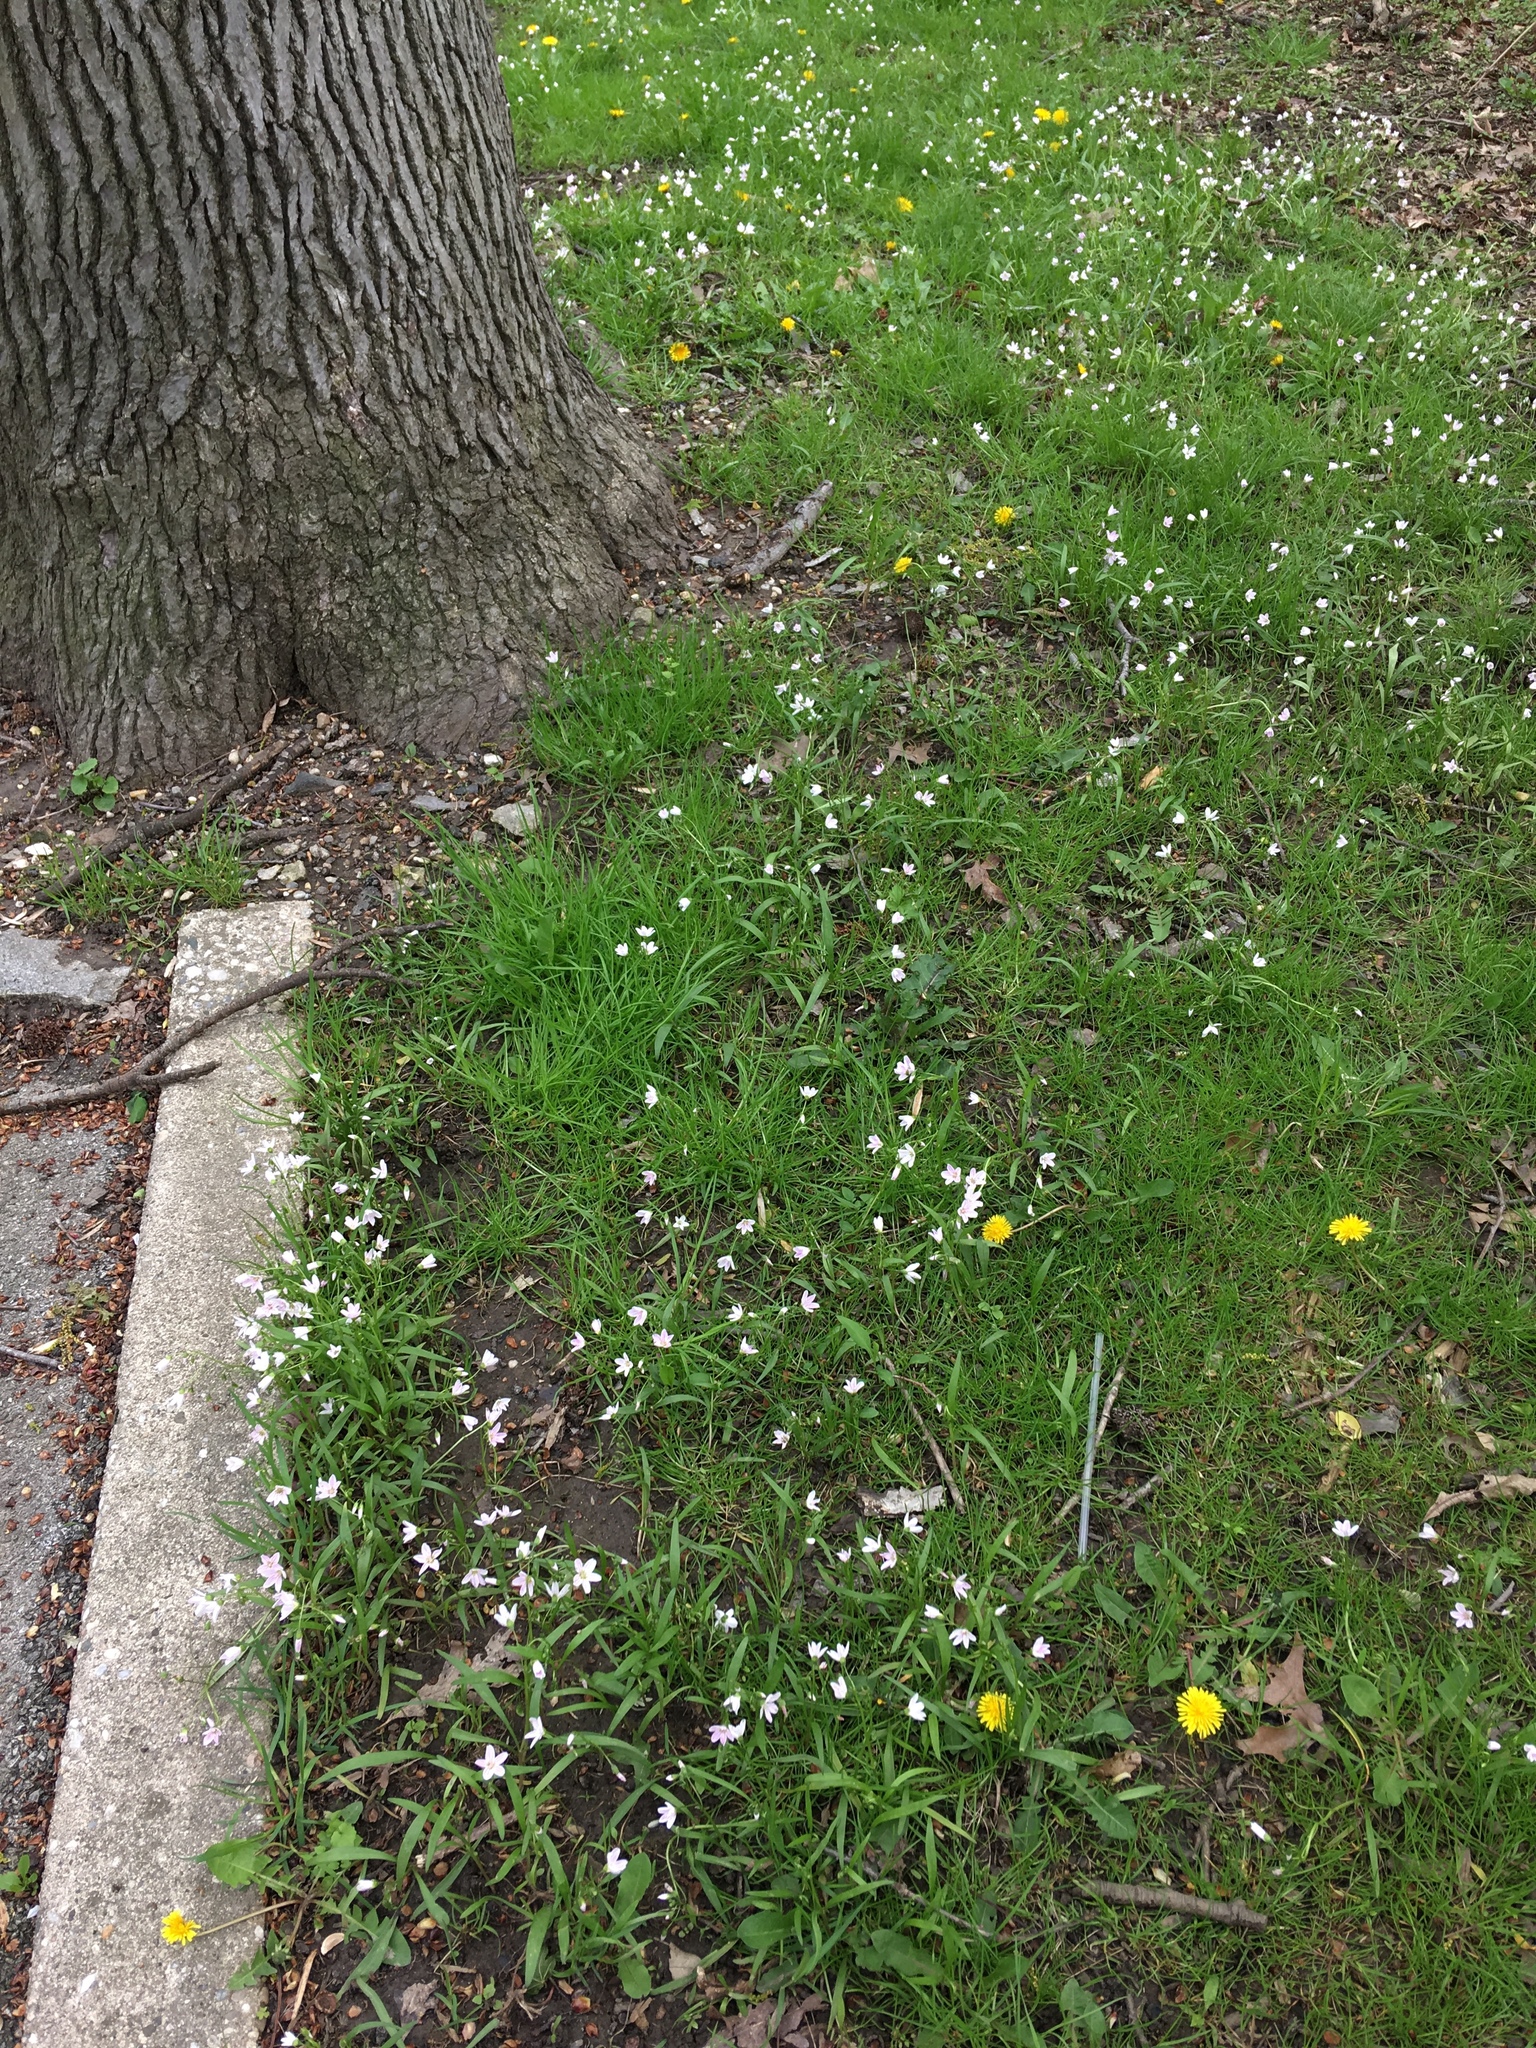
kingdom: Plantae
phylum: Tracheophyta
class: Magnoliopsida
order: Caryophyllales
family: Montiaceae
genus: Claytonia
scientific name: Claytonia virginica
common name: Virginia springbeauty
